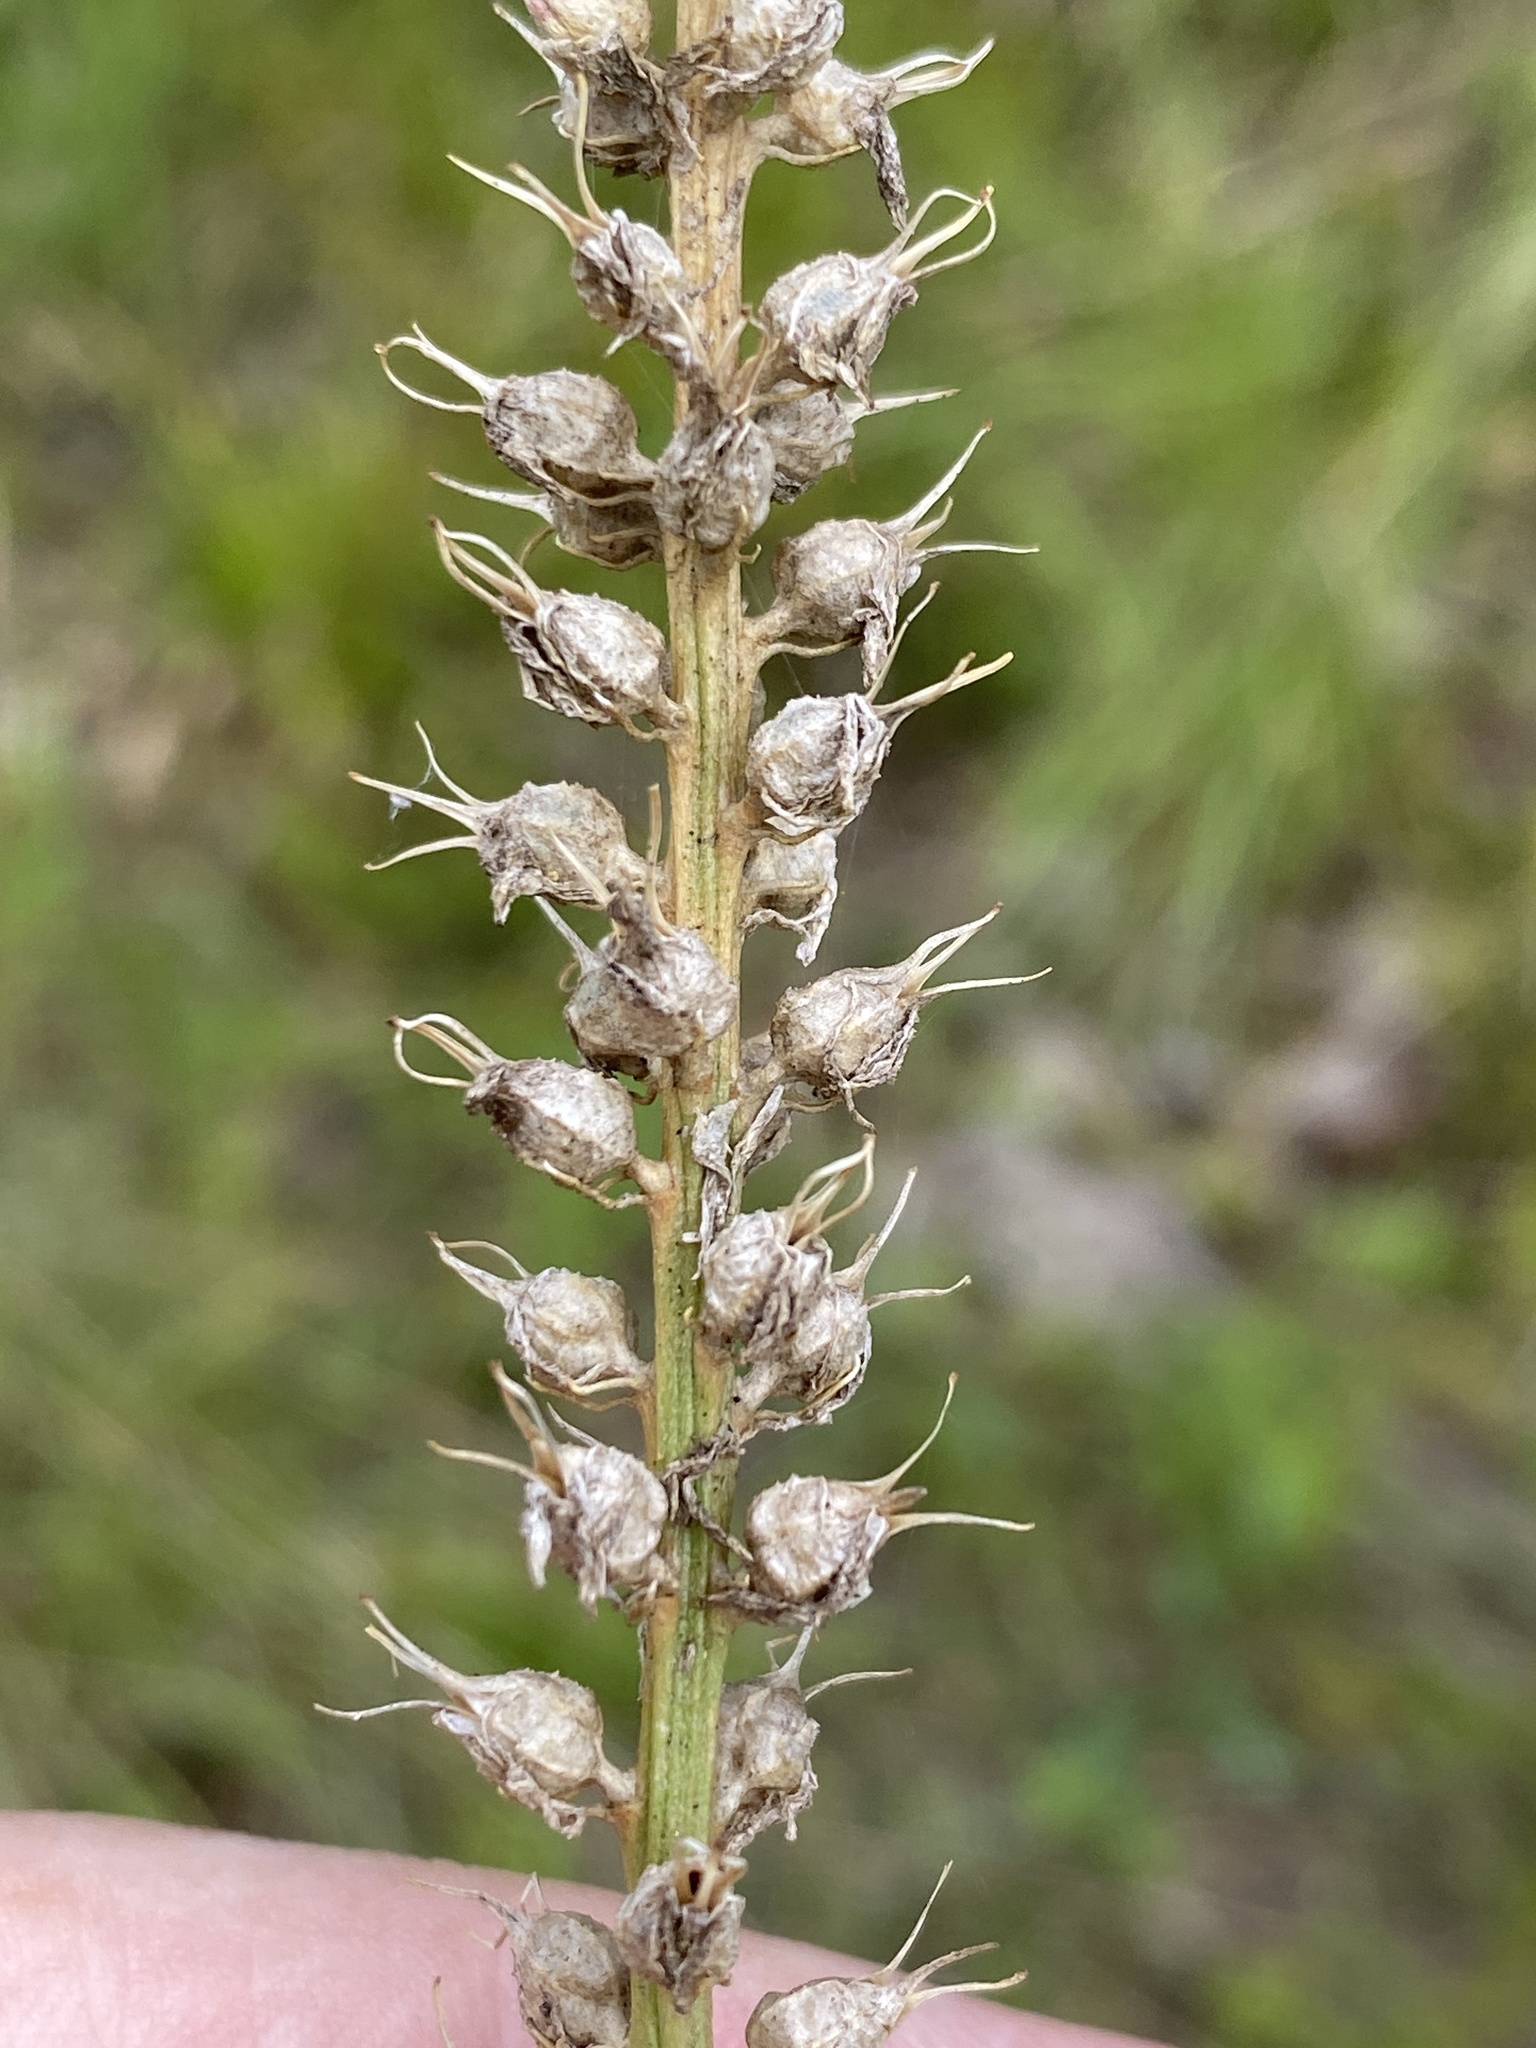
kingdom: Plantae
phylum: Tracheophyta
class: Liliopsida
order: Dioscoreales
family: Nartheciaceae
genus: Aletris
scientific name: Aletris farinosa
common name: Colicroot
